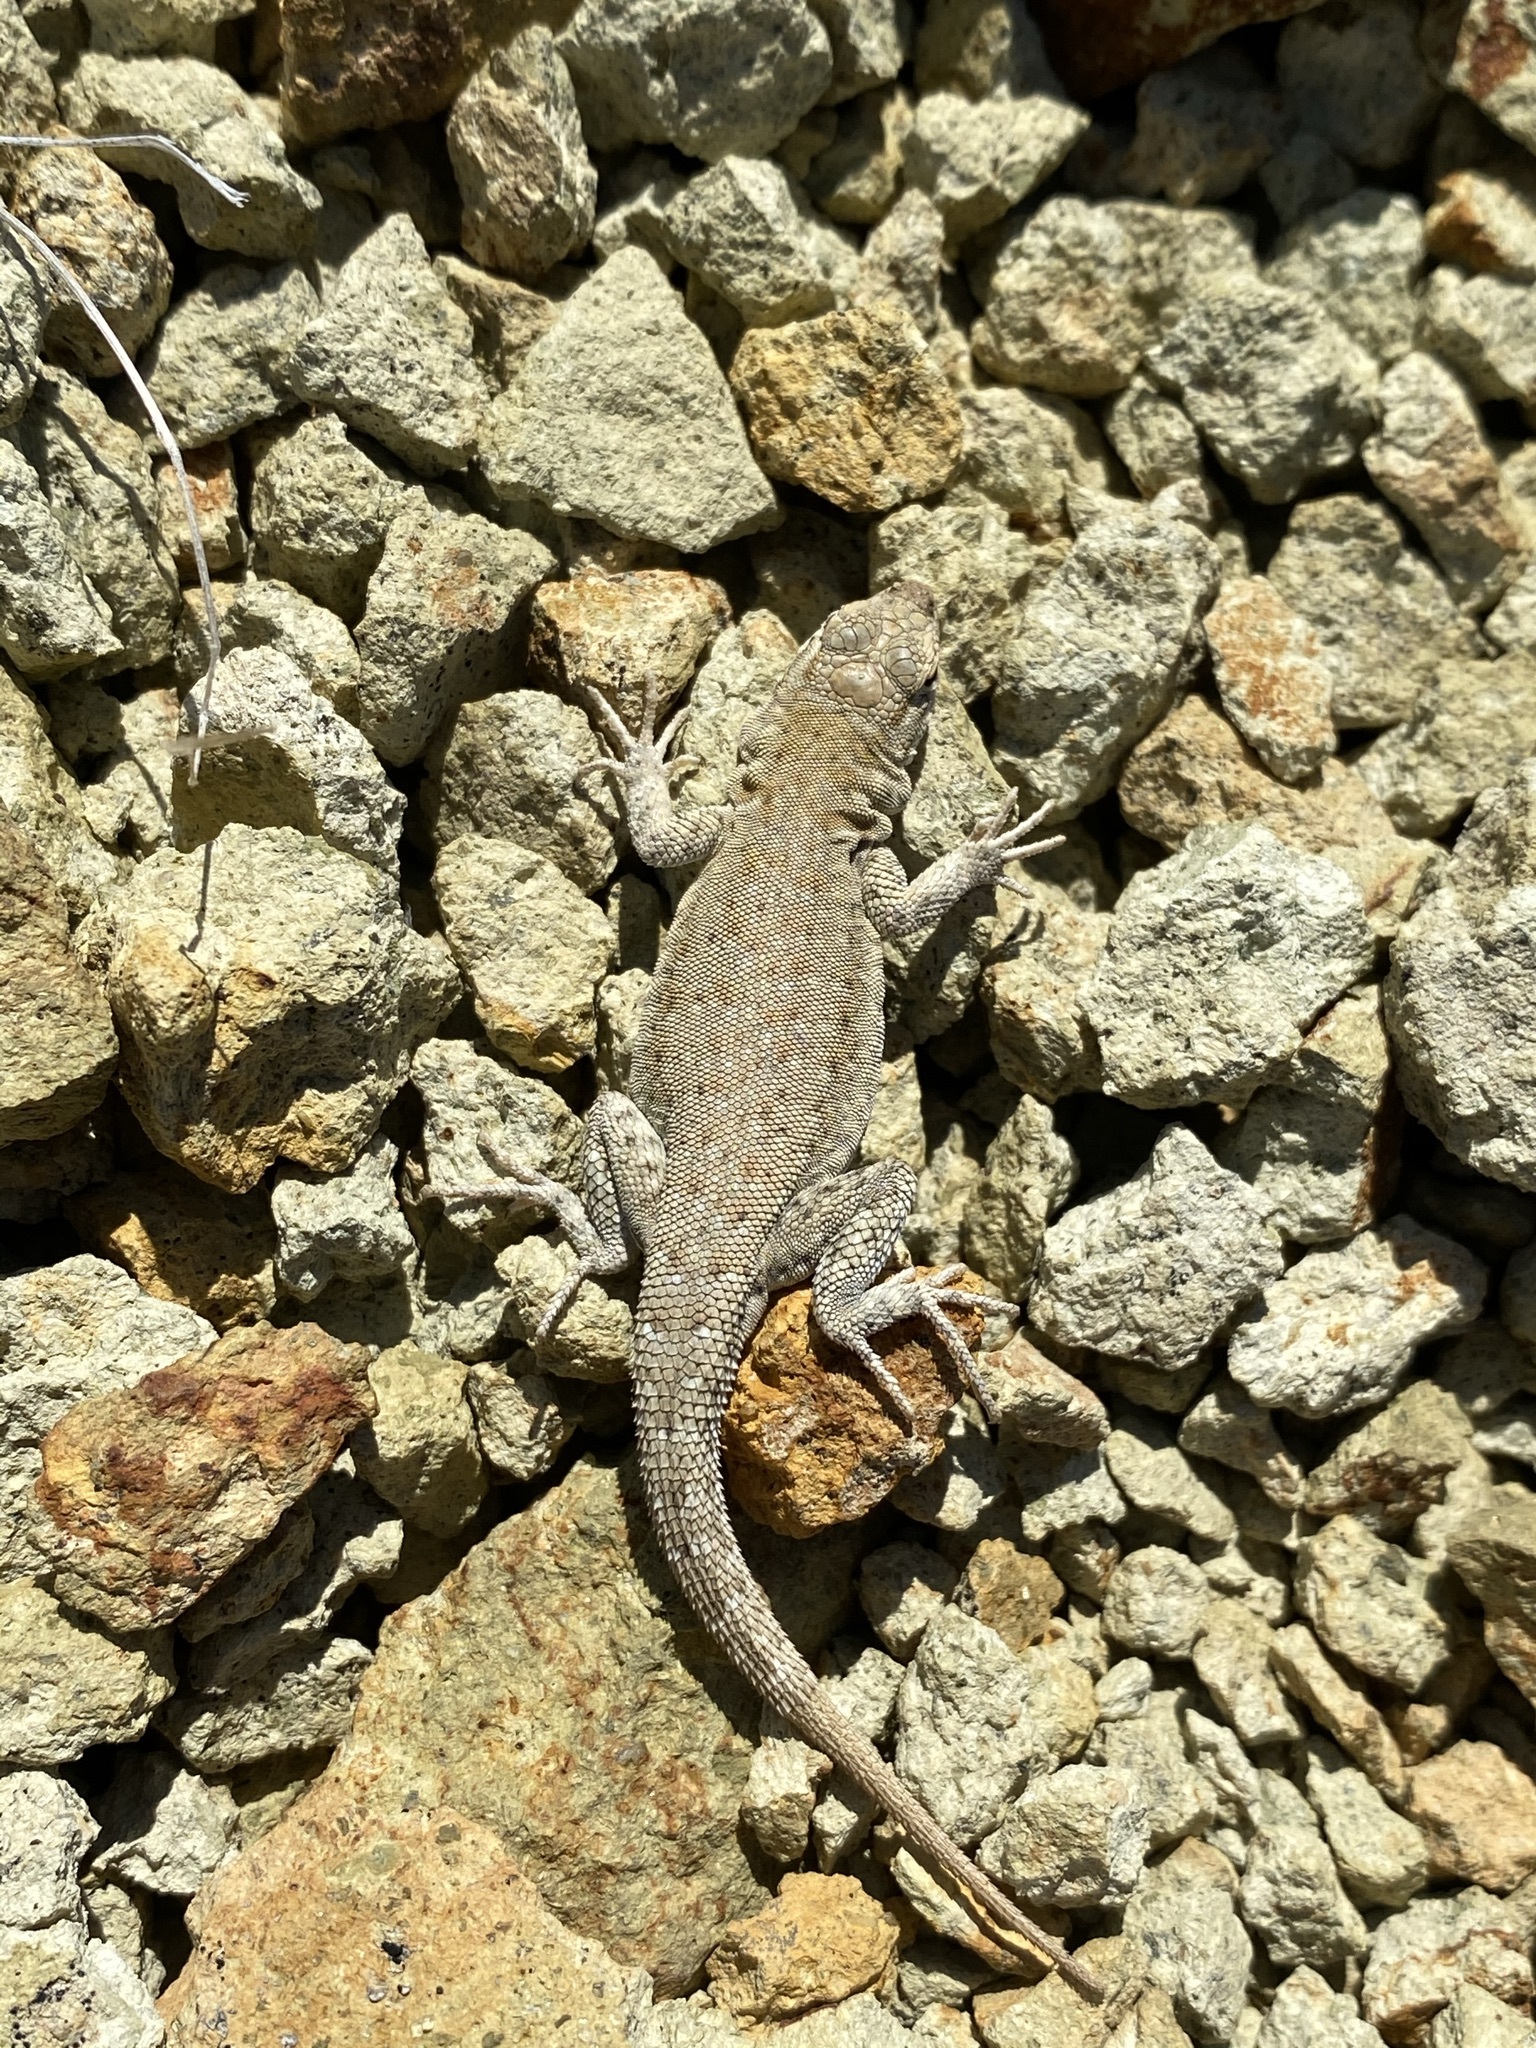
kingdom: Animalia
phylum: Chordata
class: Squamata
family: Phrynosomatidae
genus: Uta
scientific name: Uta stansburiana
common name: Side-blotched lizard
